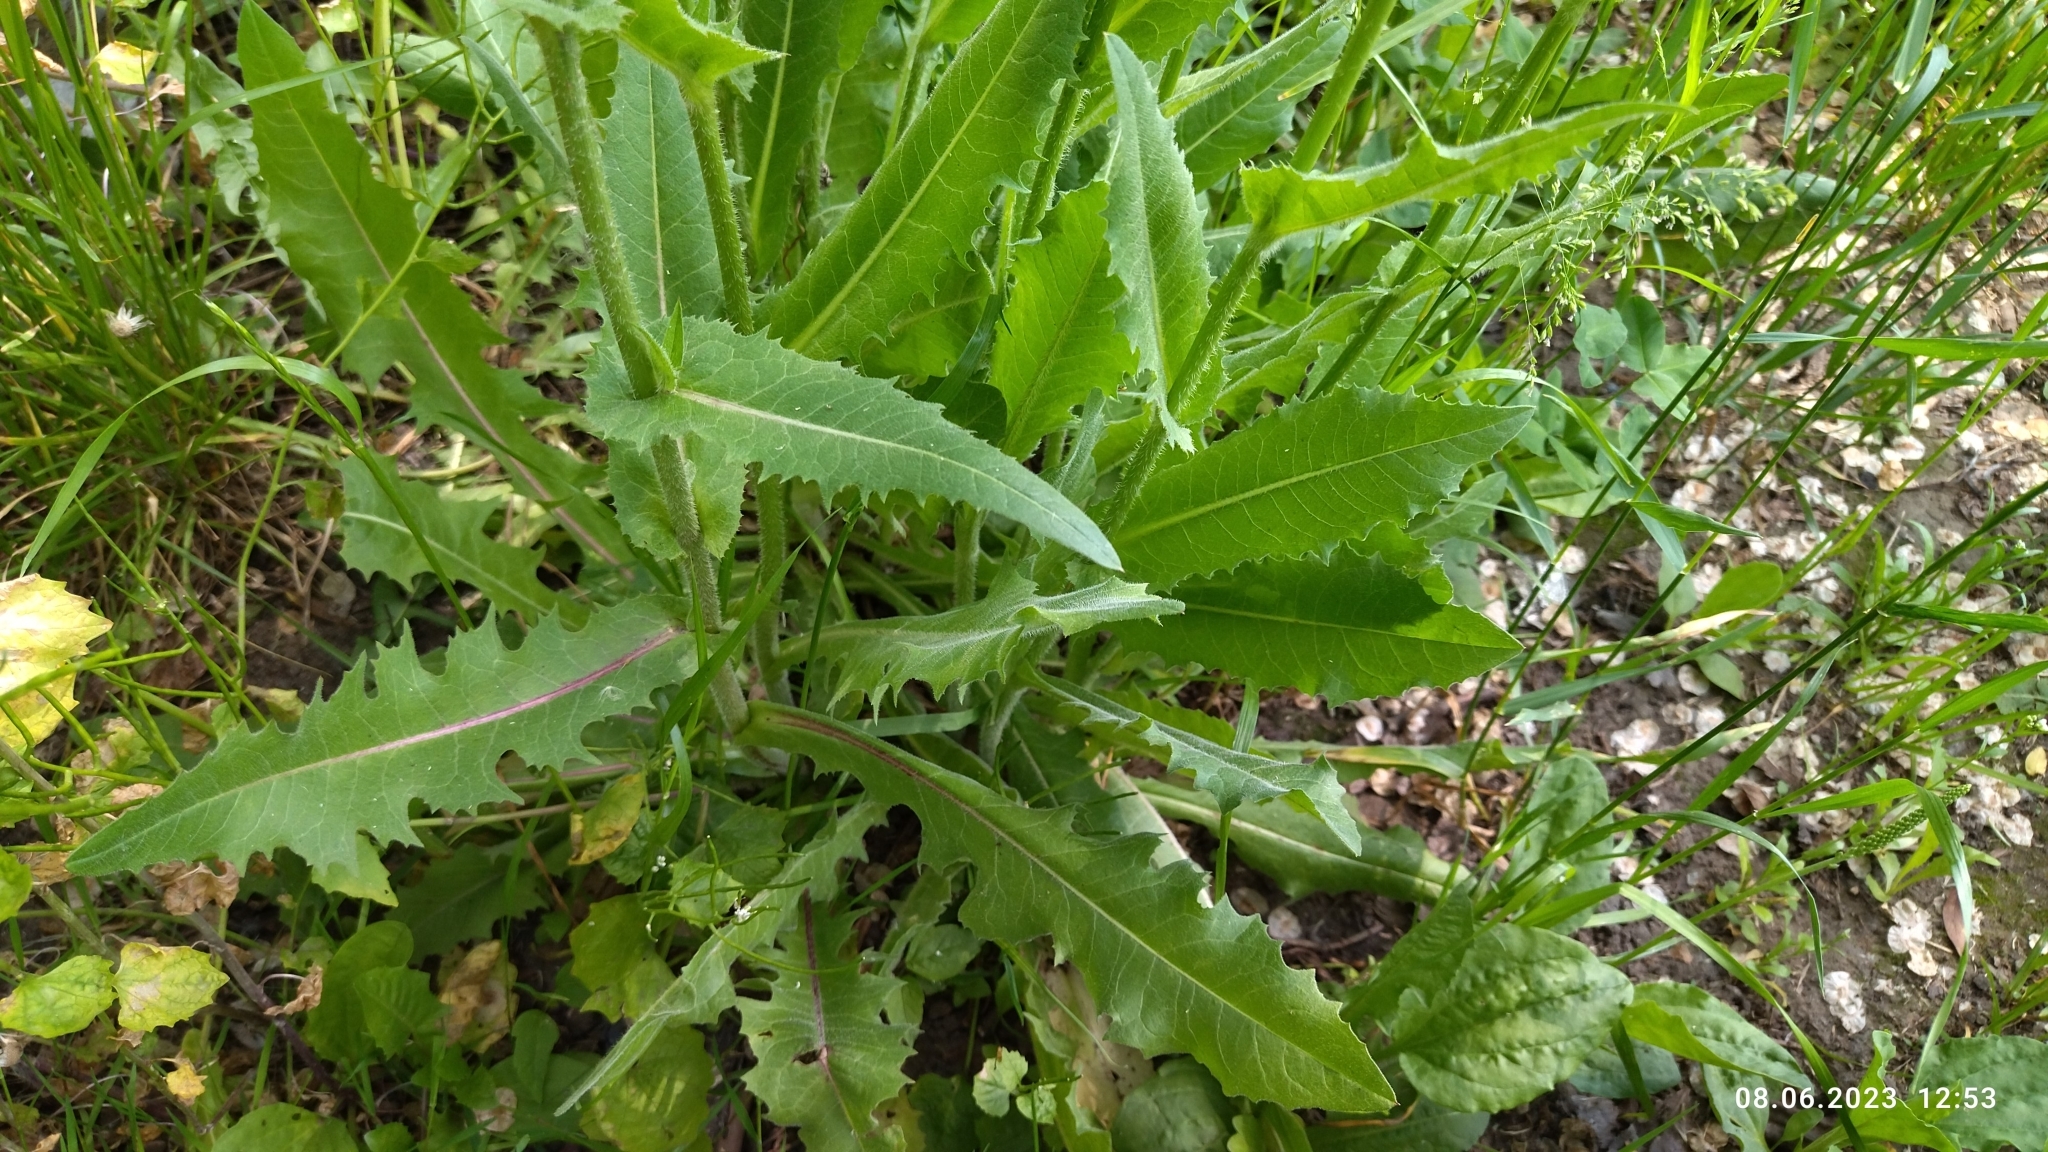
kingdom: Plantae
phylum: Tracheophyta
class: Magnoliopsida
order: Asterales
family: Asteraceae
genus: Cichorium
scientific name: Cichorium intybus
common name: Chicory
